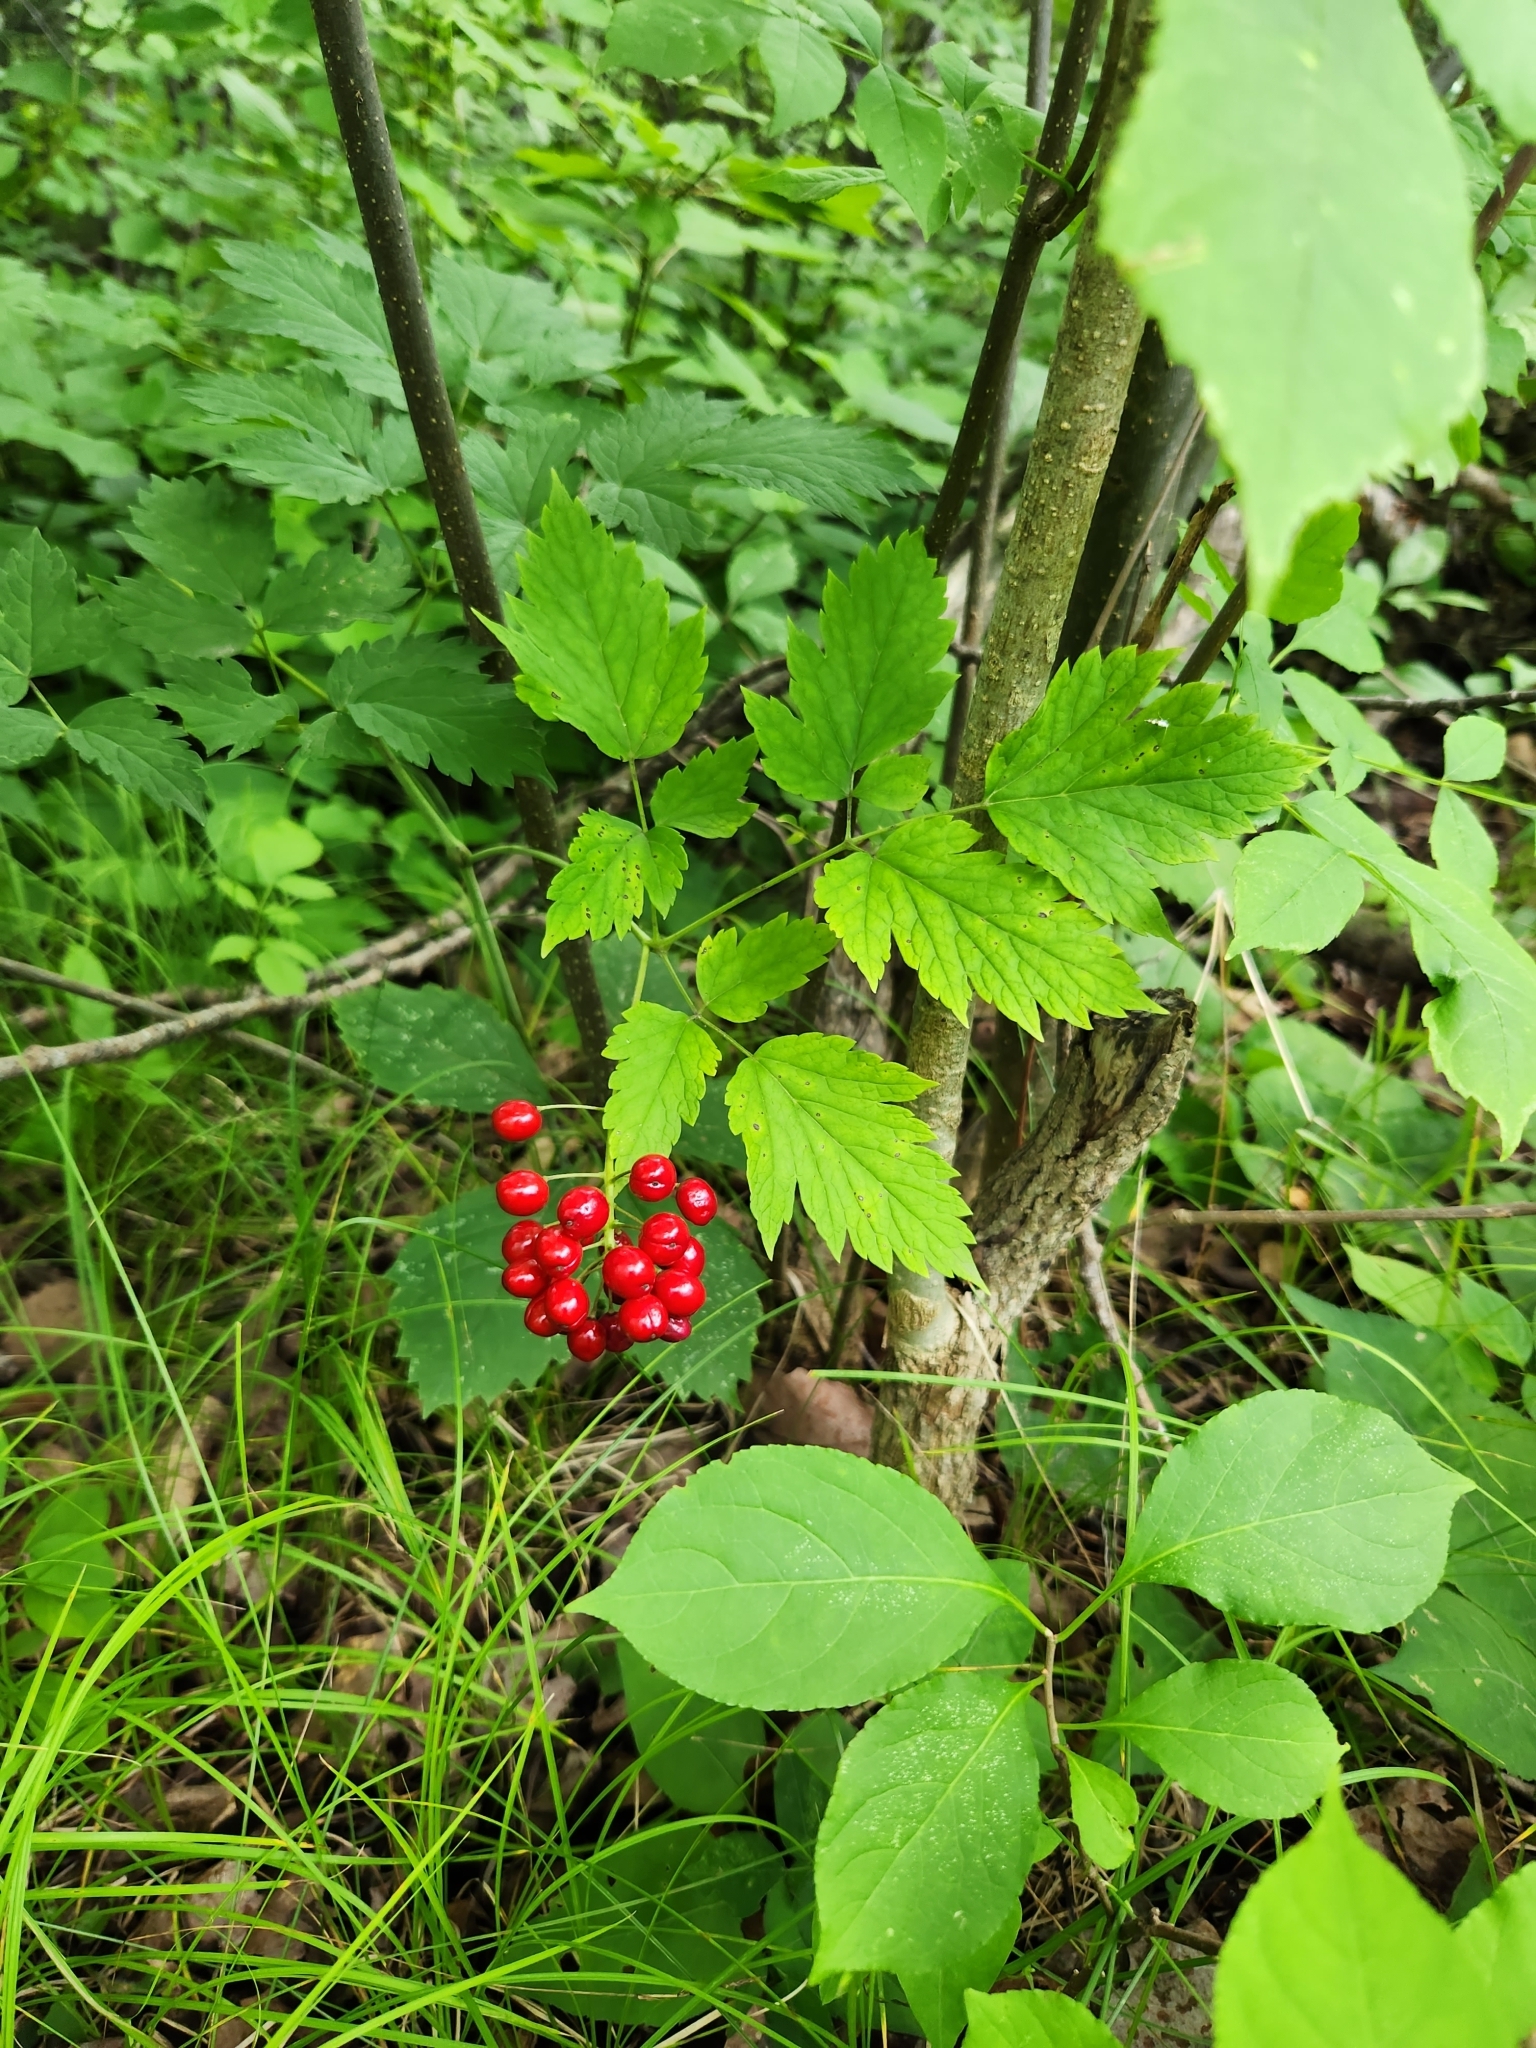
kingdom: Plantae
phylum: Tracheophyta
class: Magnoliopsida
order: Ranunculales
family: Ranunculaceae
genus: Actaea
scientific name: Actaea rubra
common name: Red baneberry
